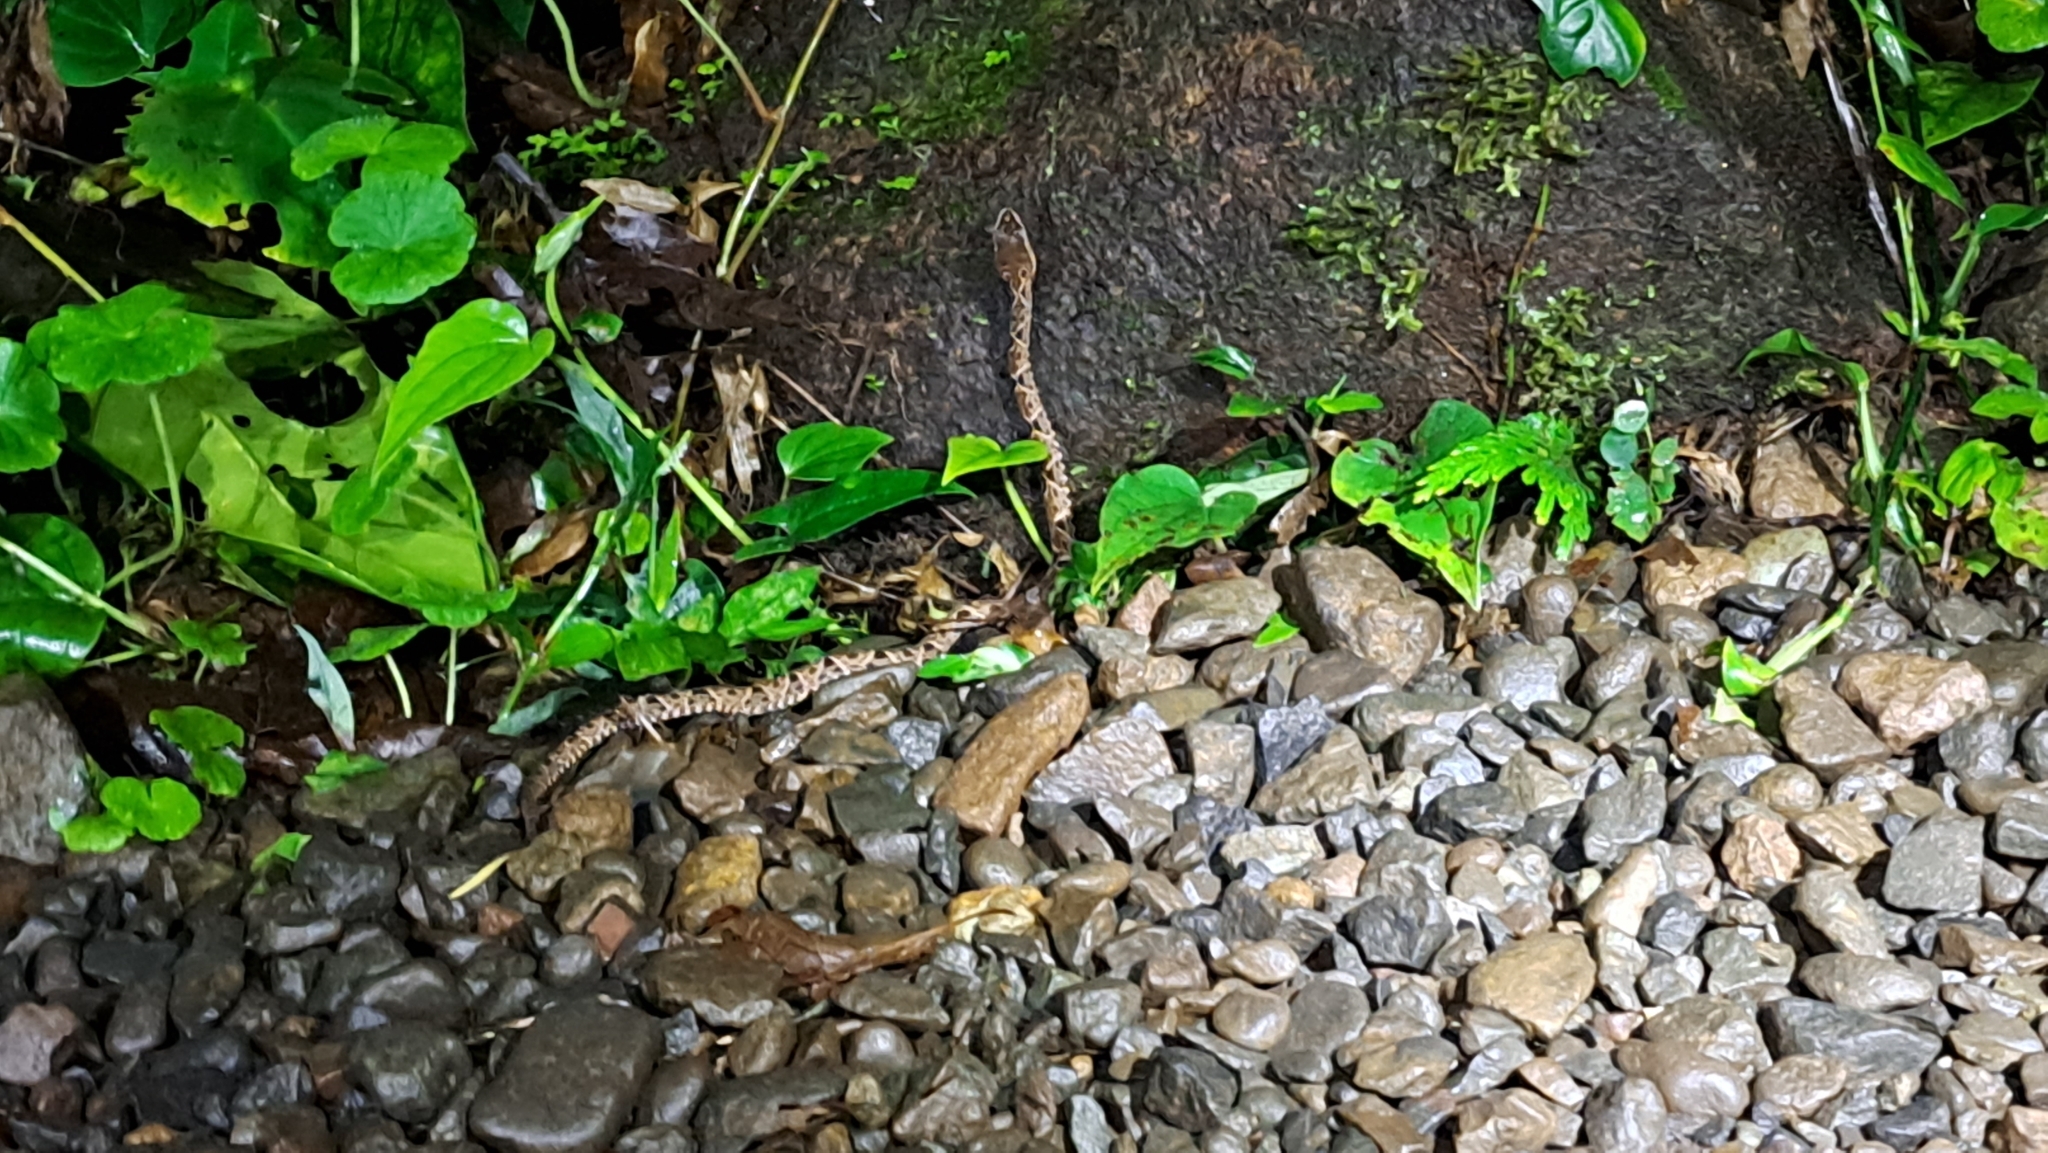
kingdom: Animalia
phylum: Chordata
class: Squamata
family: Viperidae
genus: Bothrops
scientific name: Bothrops asper
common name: Terciopelo
